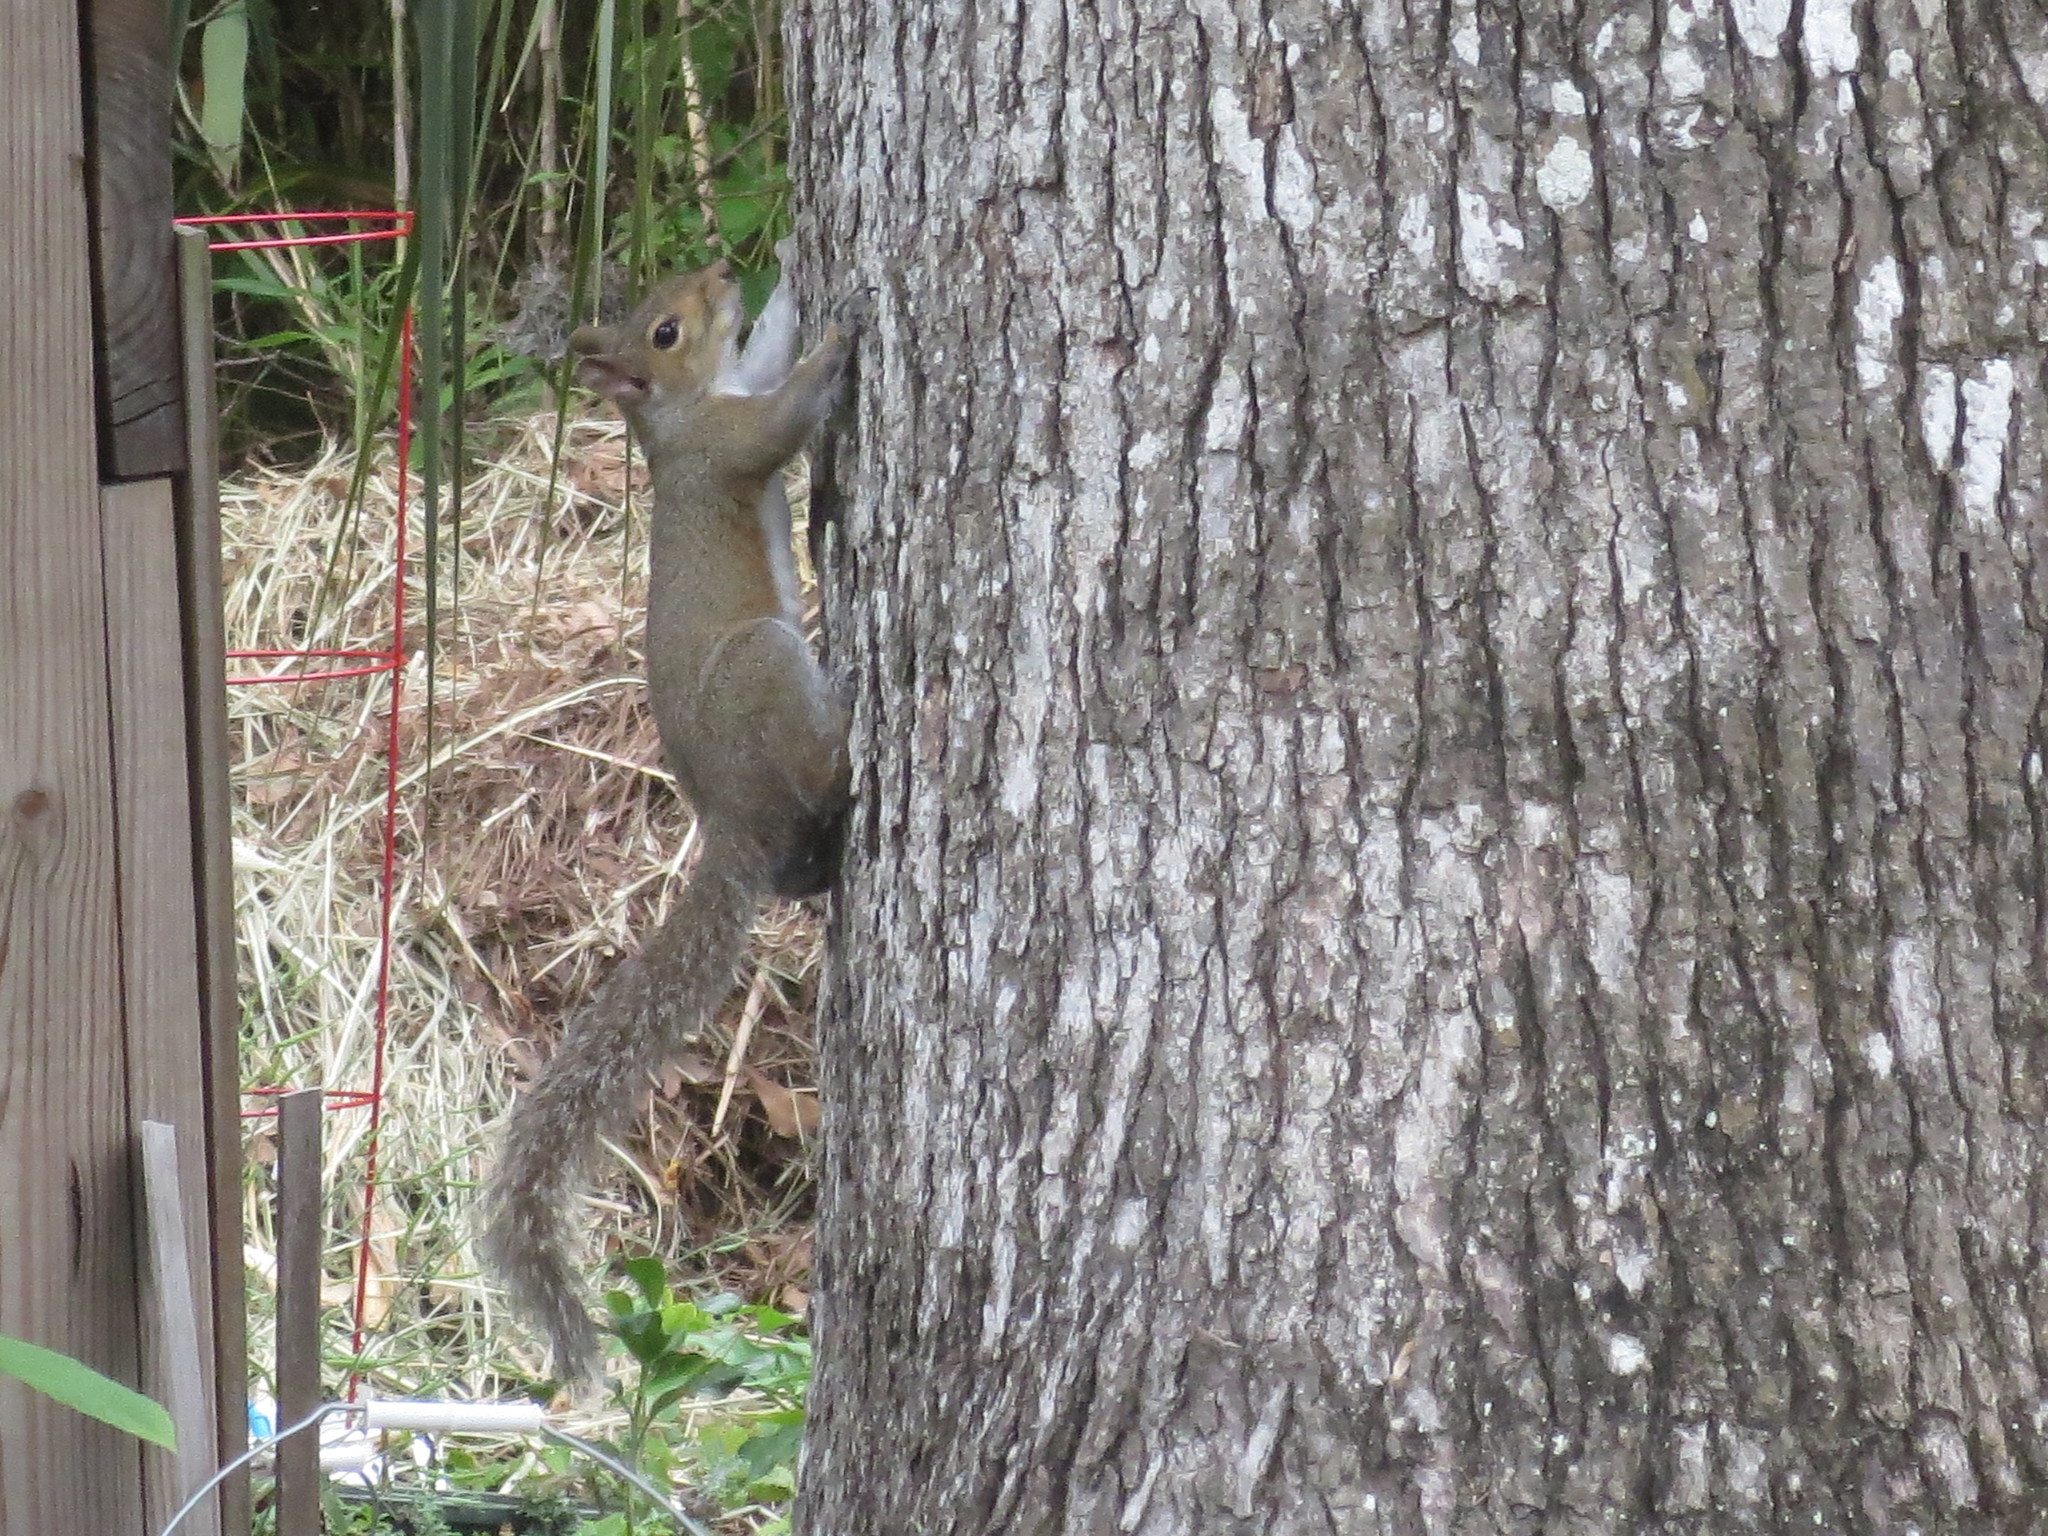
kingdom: Animalia
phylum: Chordata
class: Mammalia
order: Rodentia
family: Sciuridae
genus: Sciurus
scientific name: Sciurus carolinensis
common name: Eastern gray squirrel
